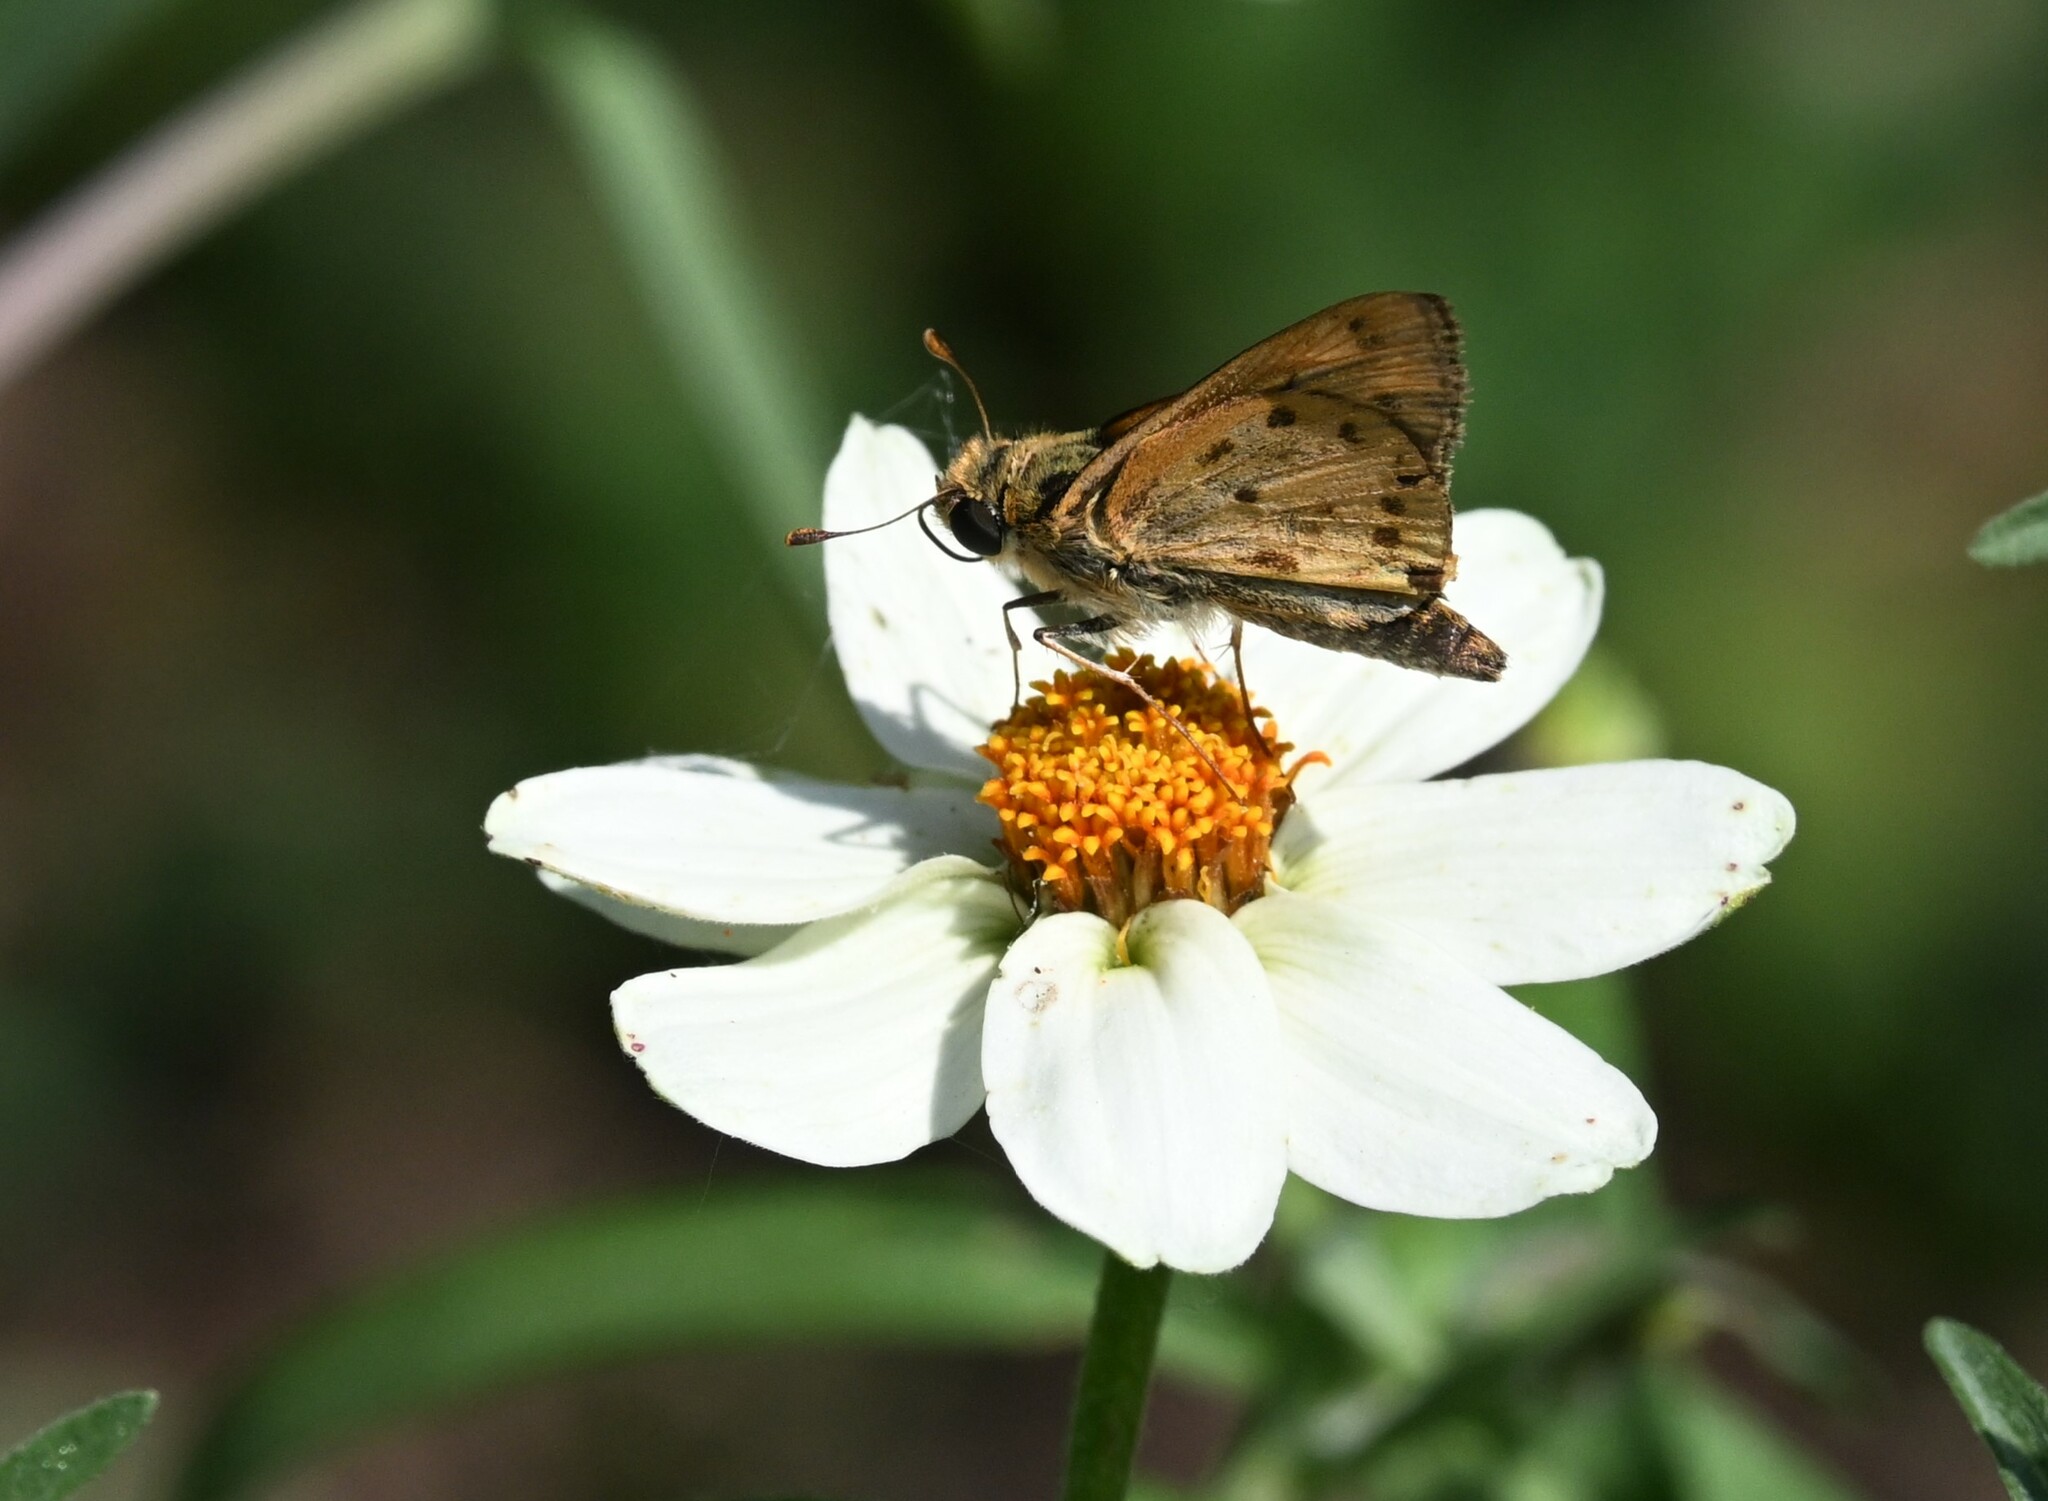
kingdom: Animalia
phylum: Arthropoda
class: Insecta
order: Lepidoptera
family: Hesperiidae
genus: Hylephila
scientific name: Hylephila phyleus
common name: Fiery skipper
